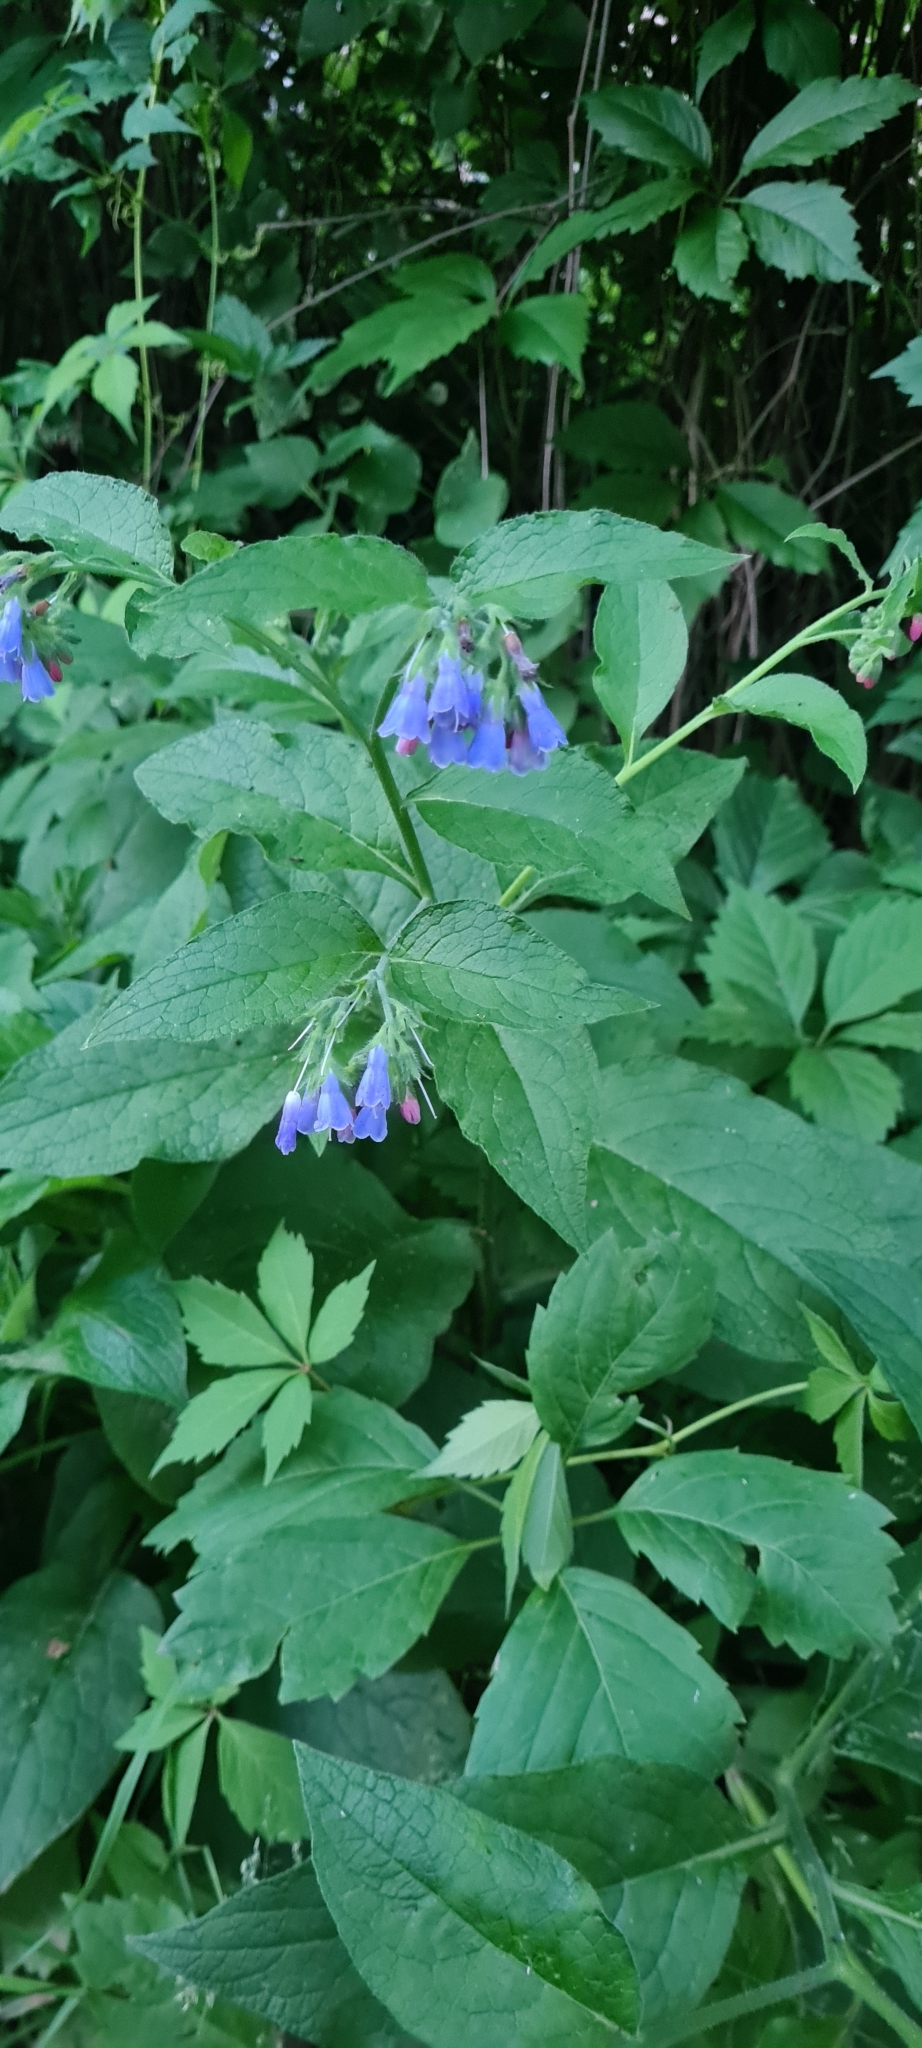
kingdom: Plantae
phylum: Tracheophyta
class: Magnoliopsida
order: Boraginales
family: Boraginaceae
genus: Symphytum
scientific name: Symphytum asperum
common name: Prickly comfrey
